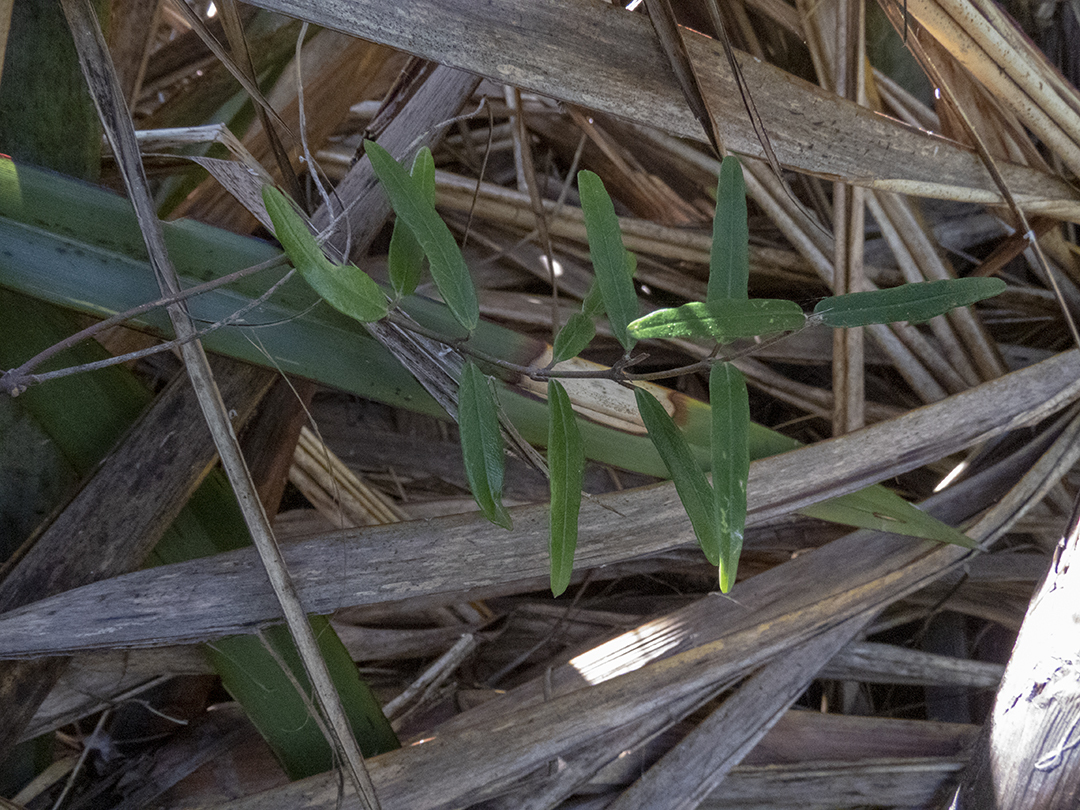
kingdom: Plantae
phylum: Tracheophyta
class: Magnoliopsida
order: Gentianales
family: Apocynaceae
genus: Parsonsia
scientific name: Parsonsia heterophylla
